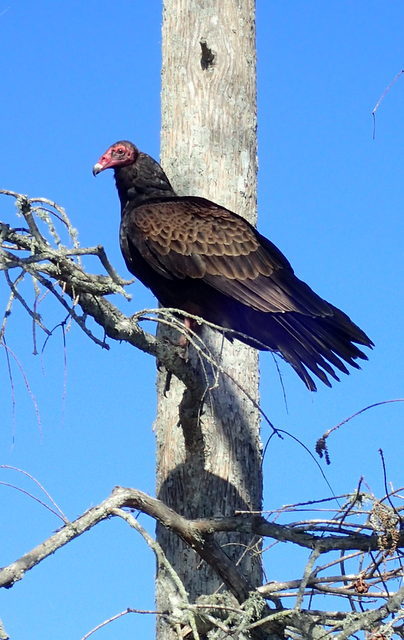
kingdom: Animalia
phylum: Chordata
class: Aves
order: Accipitriformes
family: Cathartidae
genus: Cathartes
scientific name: Cathartes aura
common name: Turkey vulture
